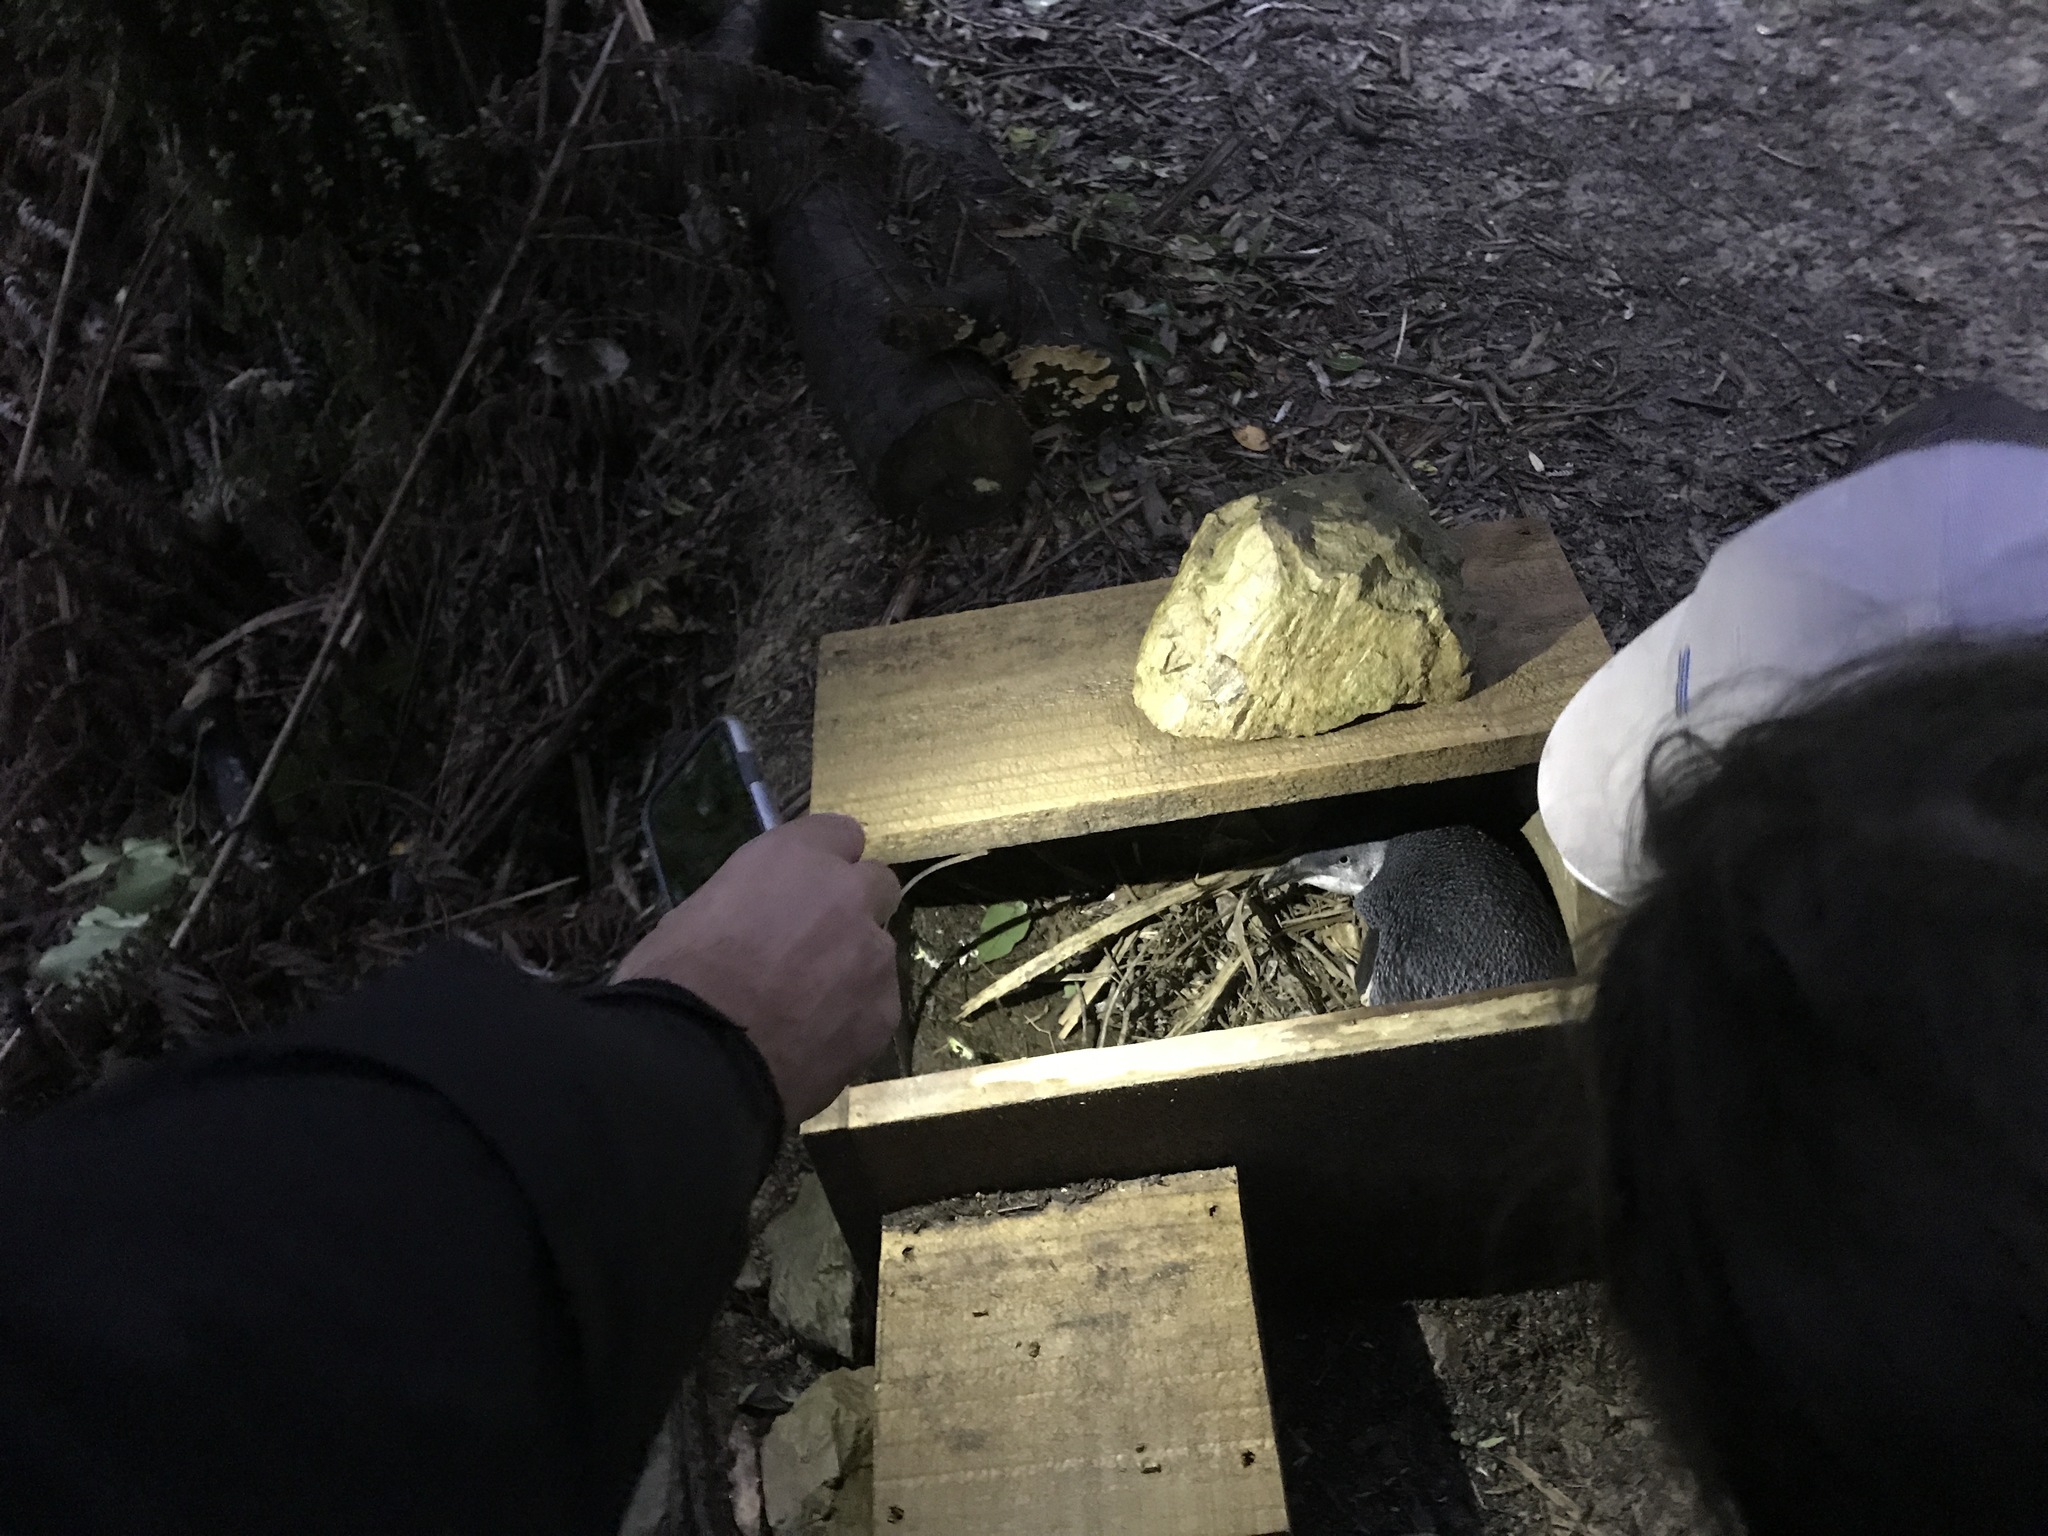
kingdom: Animalia
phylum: Chordata
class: Aves
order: Sphenisciformes
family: Spheniscidae
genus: Eudyptula
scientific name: Eudyptula minor
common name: Little penguin
